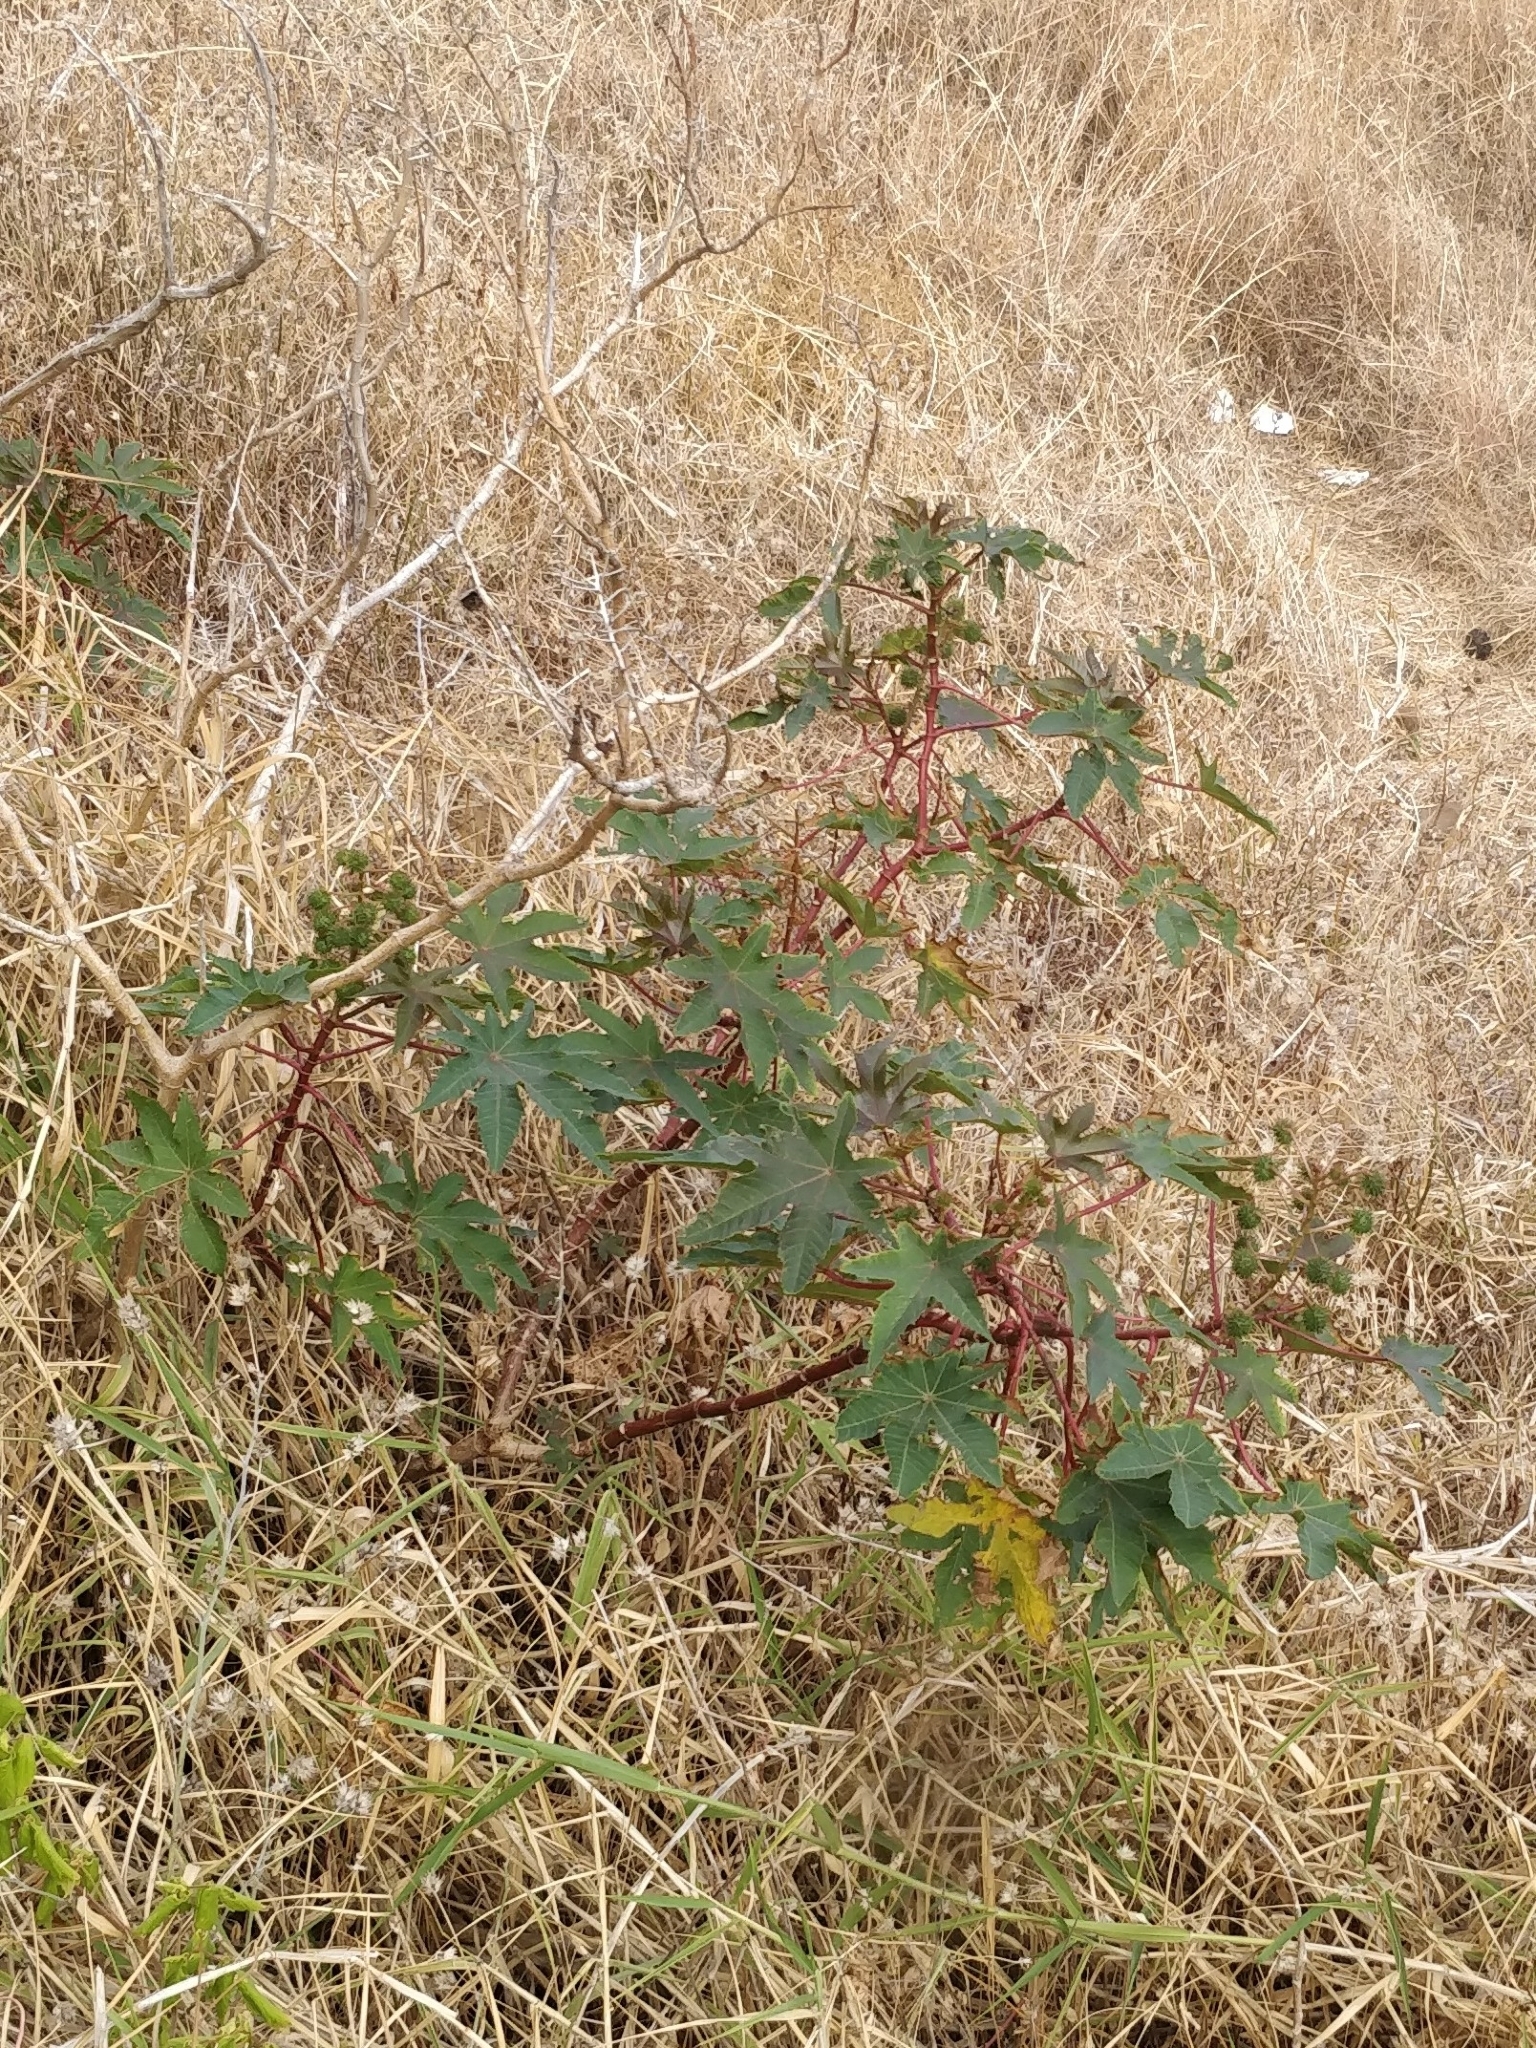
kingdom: Plantae
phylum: Tracheophyta
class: Magnoliopsida
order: Malpighiales
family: Euphorbiaceae
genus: Ricinus
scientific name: Ricinus communis
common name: Castor-oil-plant
